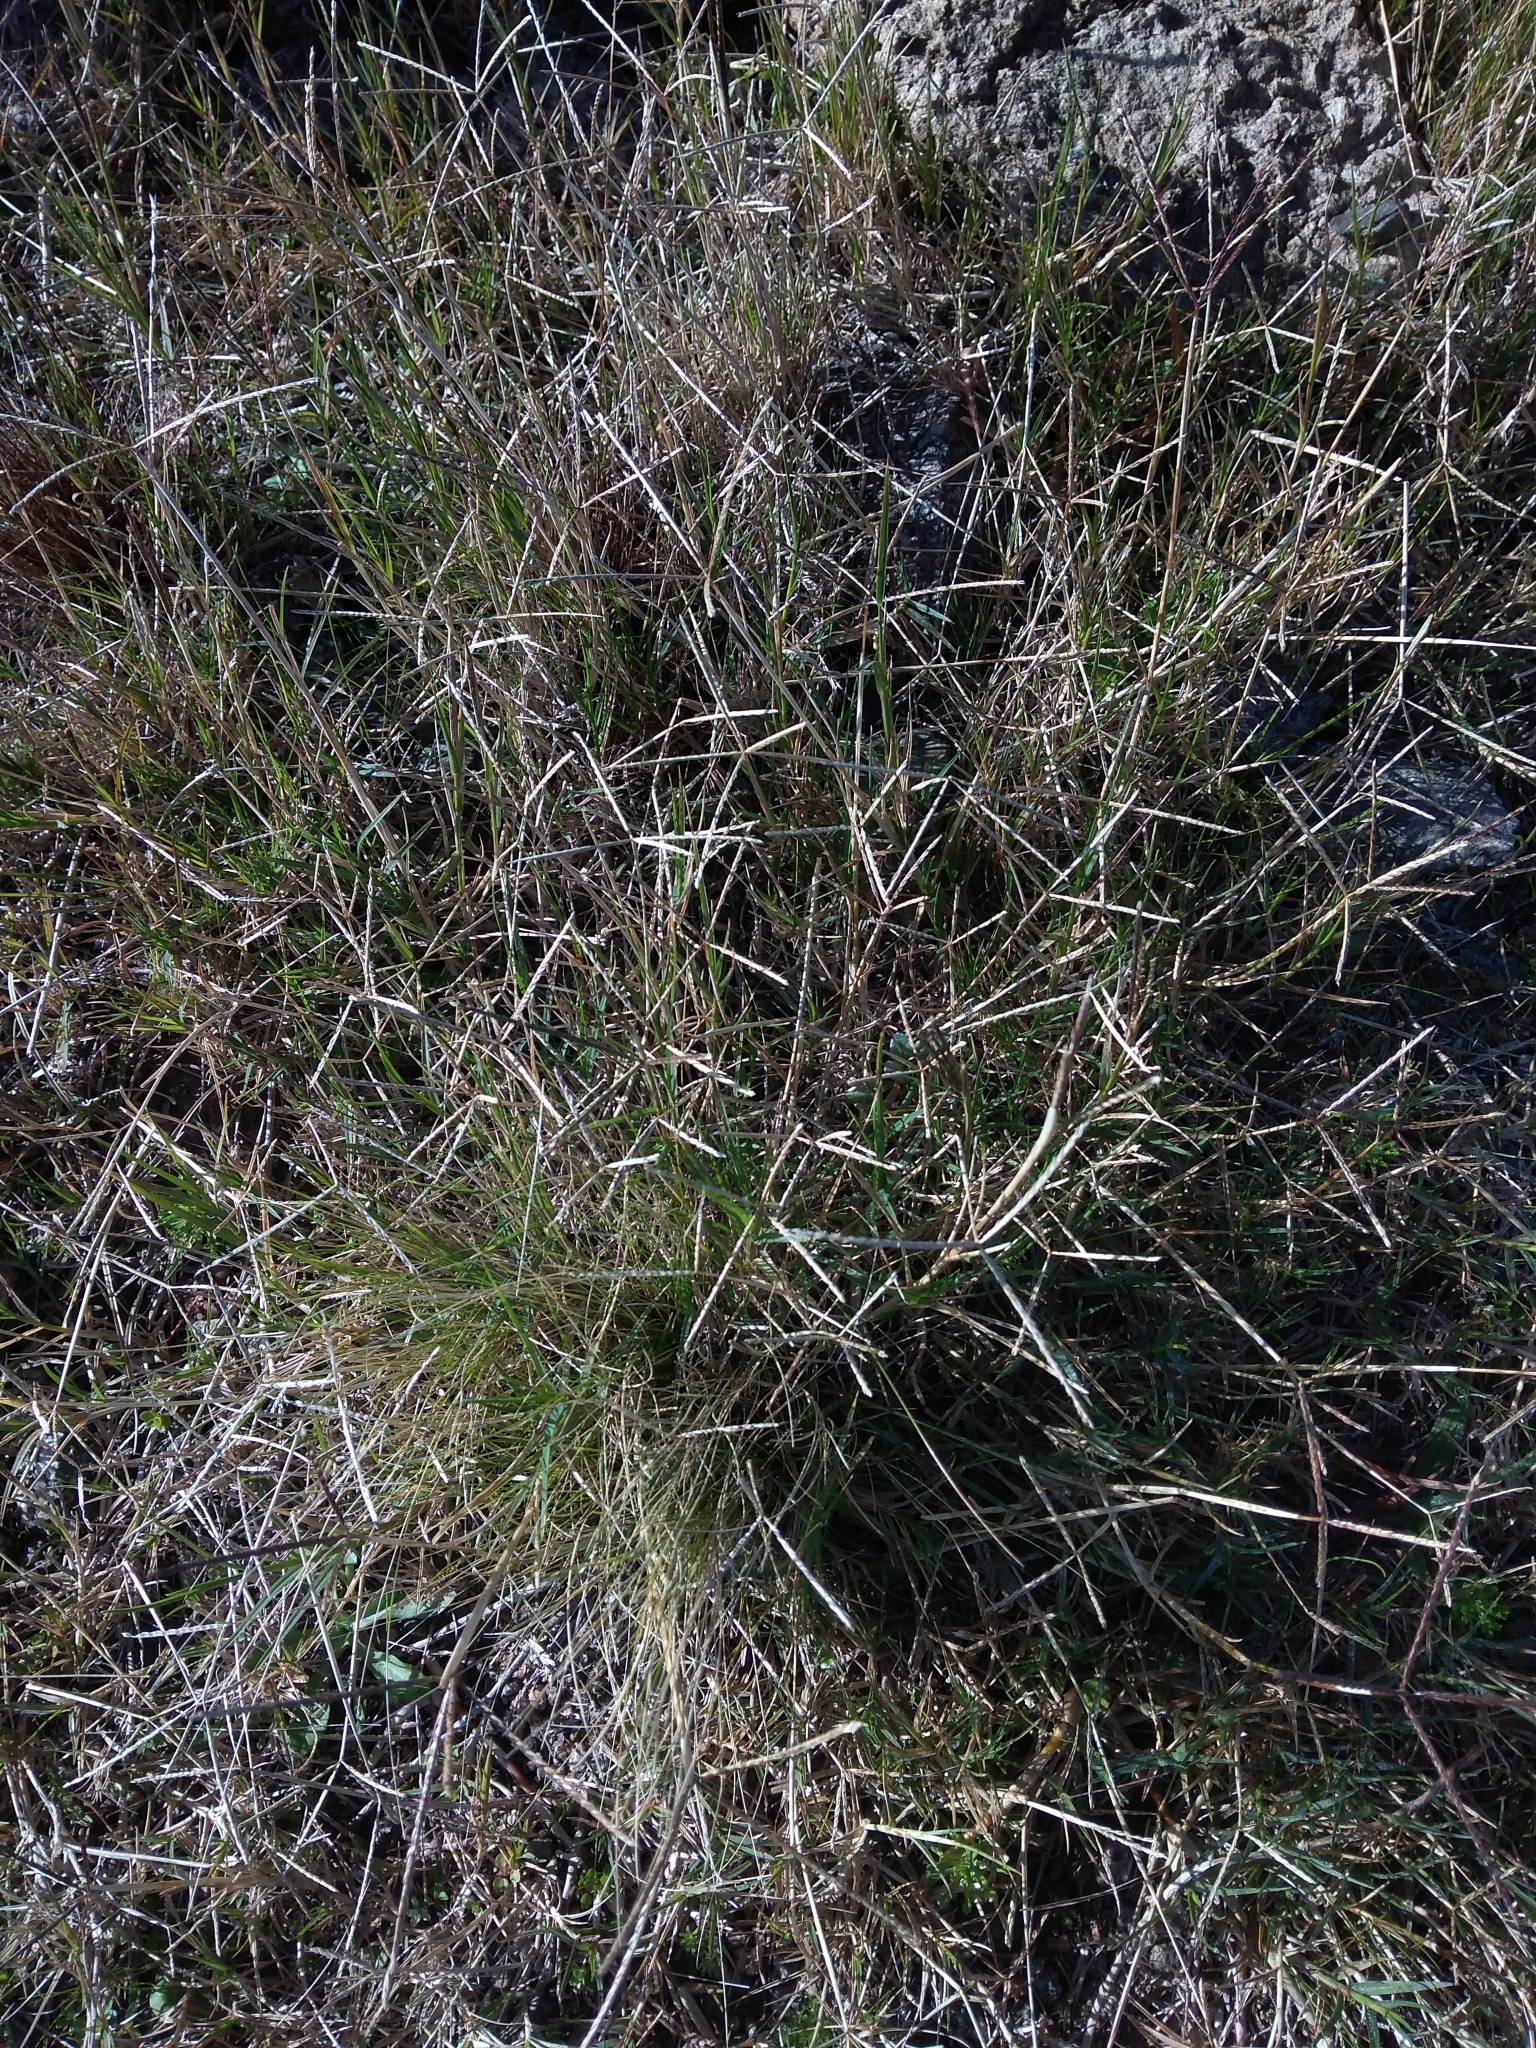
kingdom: Plantae
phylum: Tracheophyta
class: Liliopsida
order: Poales
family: Poaceae
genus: Cynodon
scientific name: Cynodon dactylon
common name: Bermuda grass
